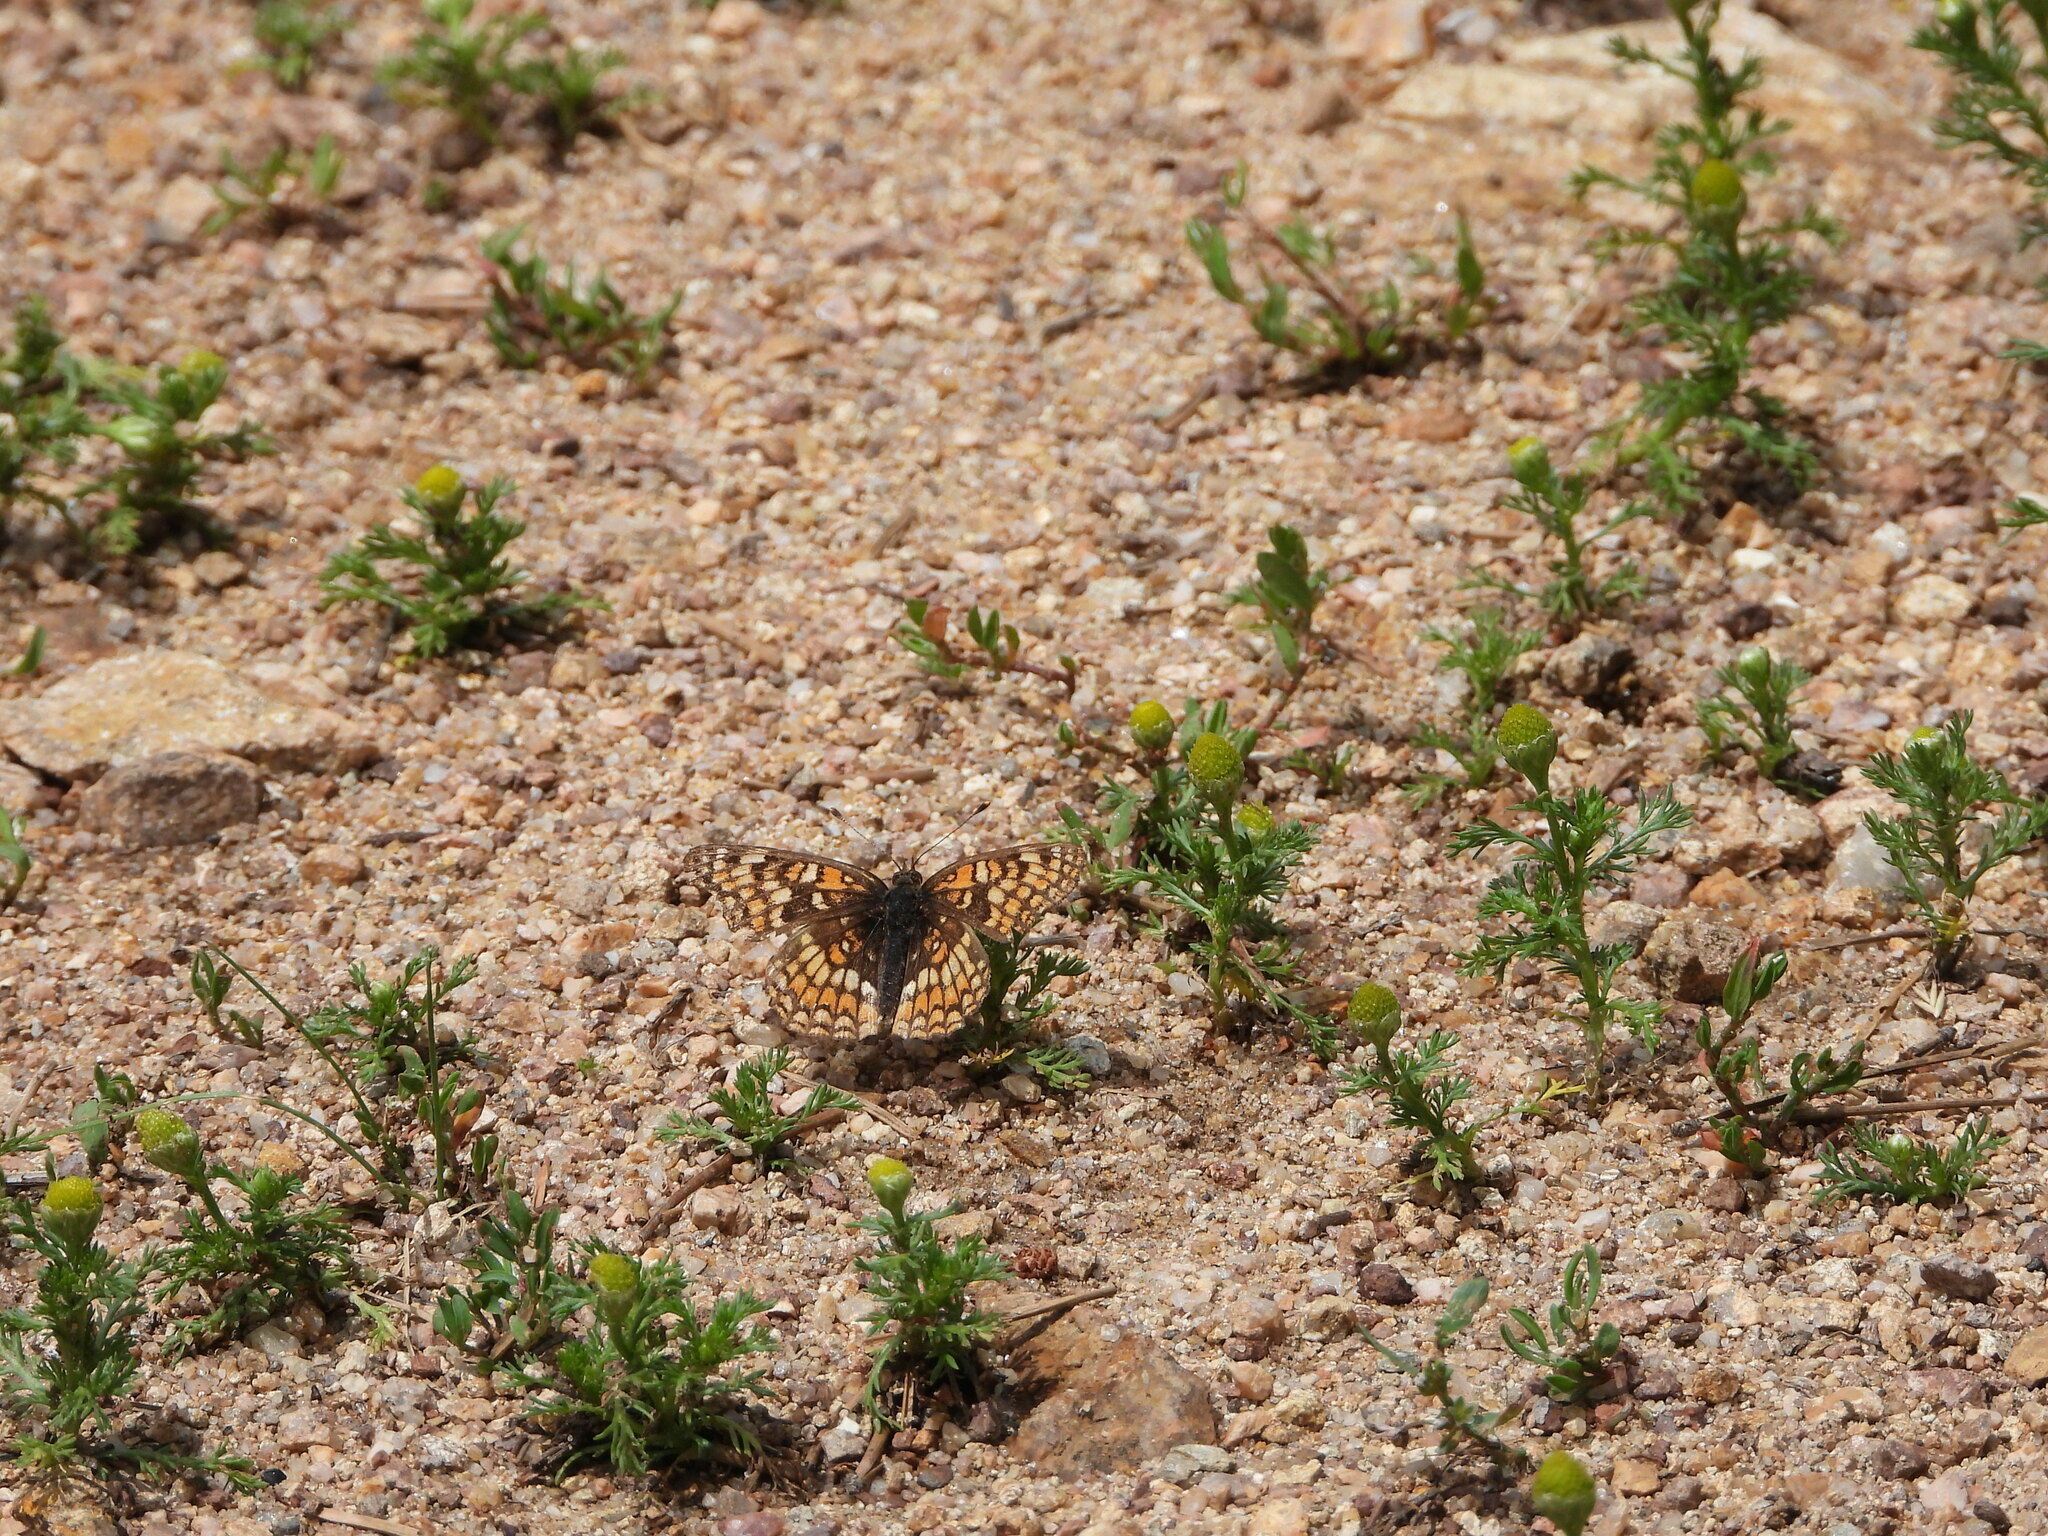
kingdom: Plantae
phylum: Tracheophyta
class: Magnoliopsida
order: Asterales
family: Asteraceae
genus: Matricaria
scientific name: Matricaria discoidea
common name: Disc mayweed
